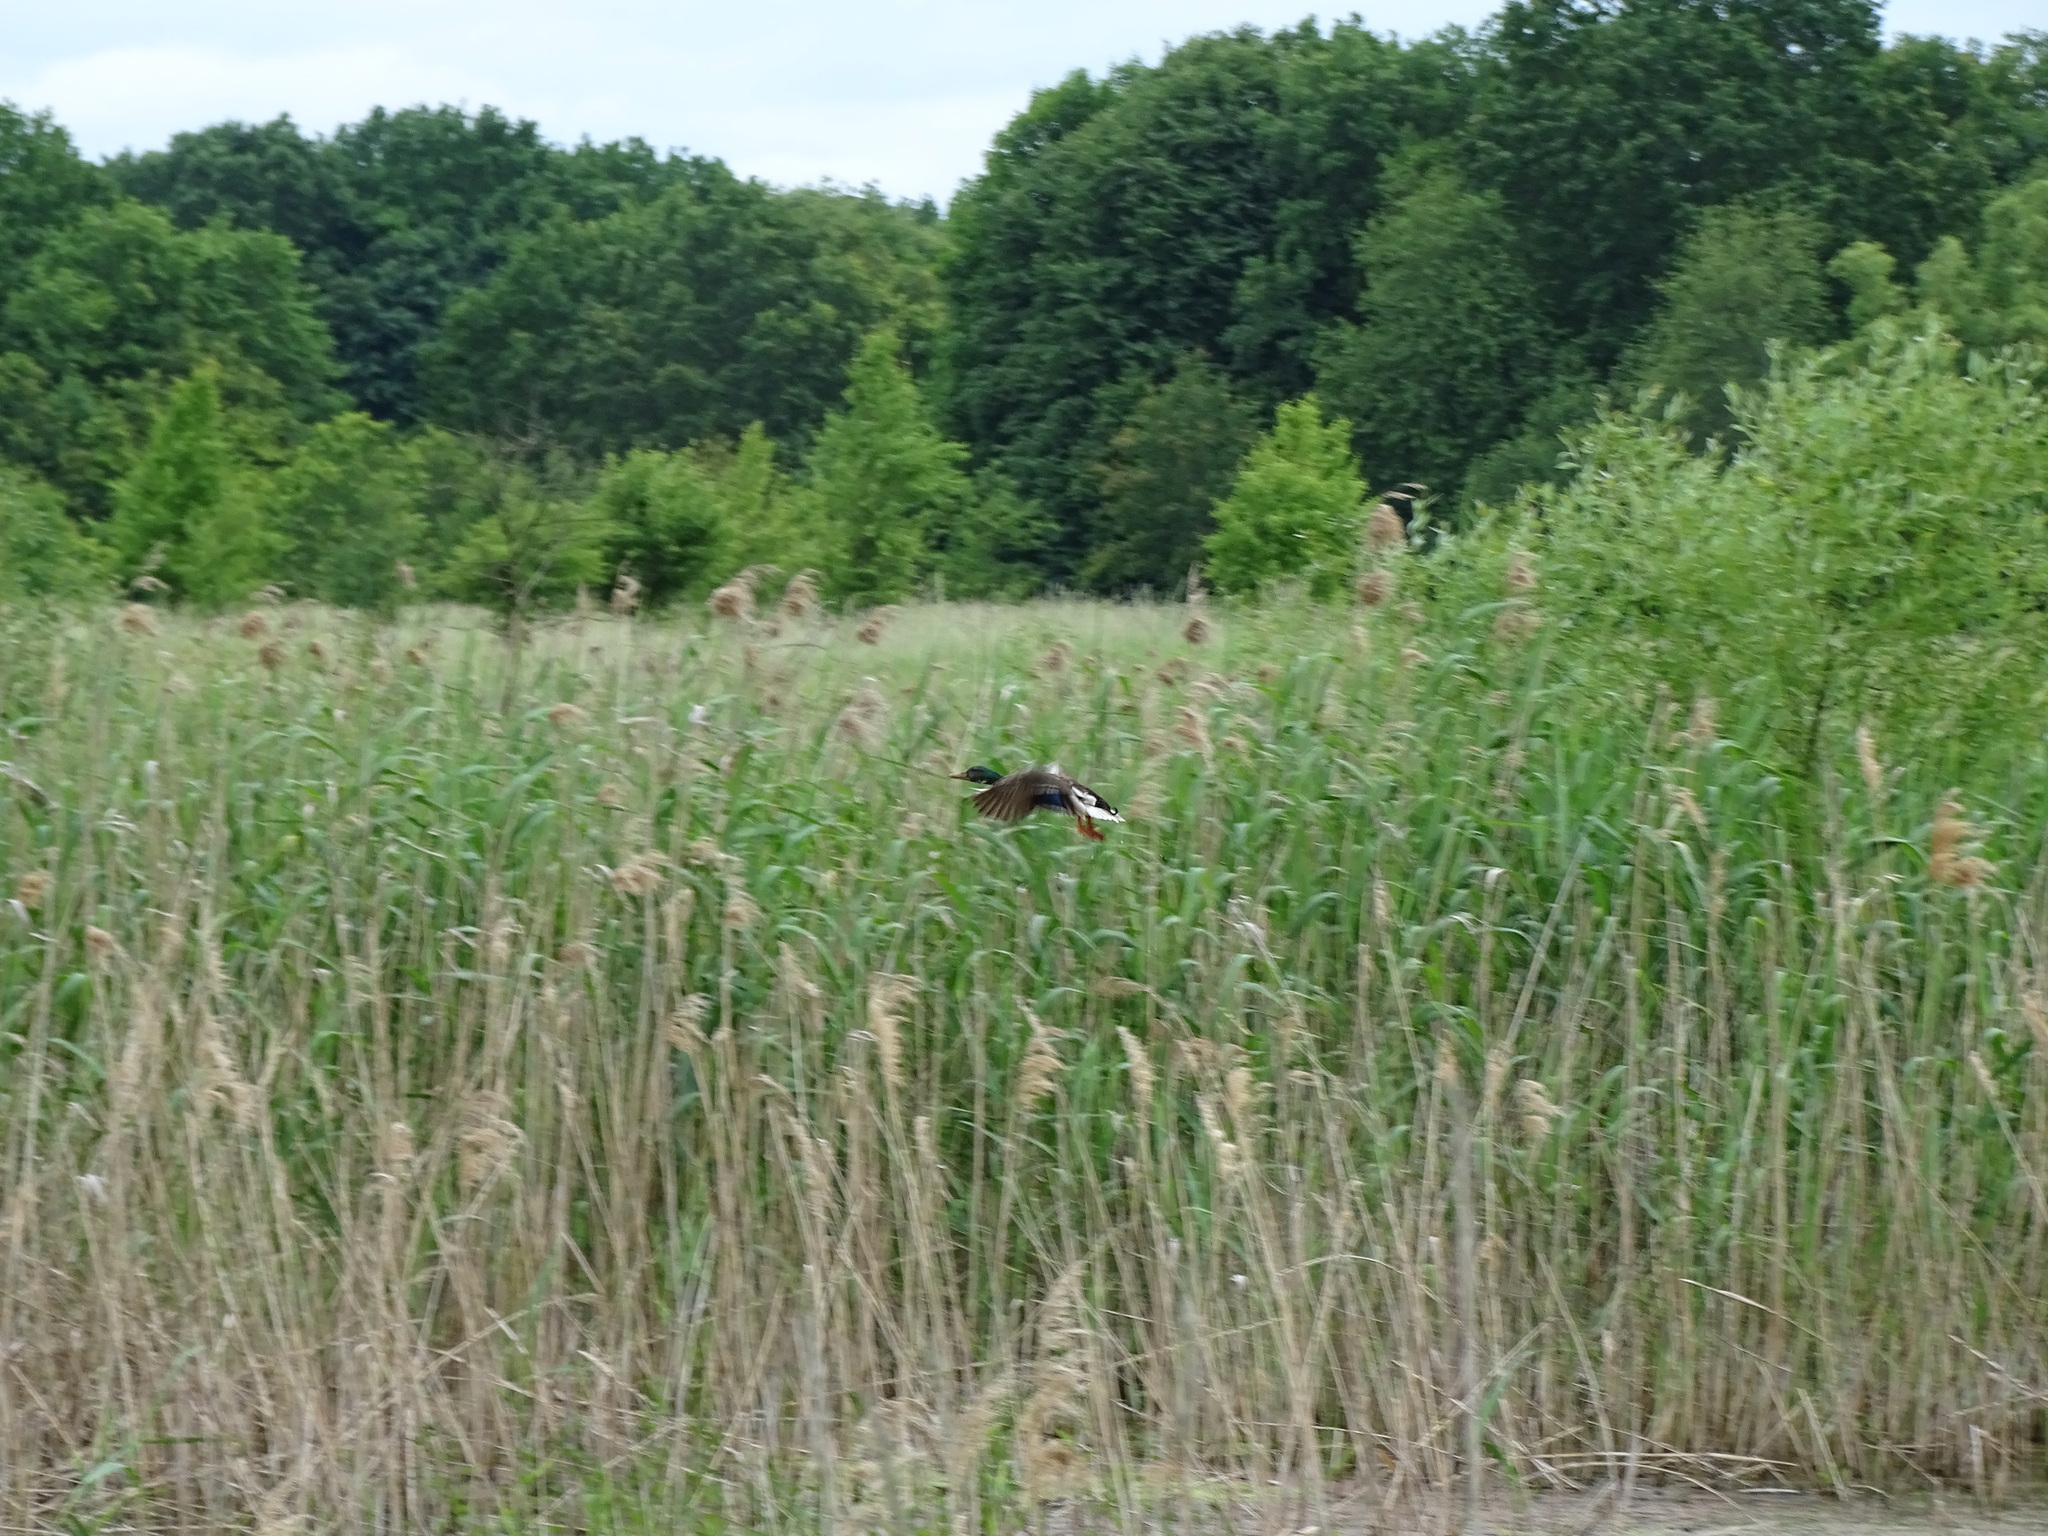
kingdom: Animalia
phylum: Chordata
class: Aves
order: Anseriformes
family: Anatidae
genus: Anas
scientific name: Anas platyrhynchos
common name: Mallard
